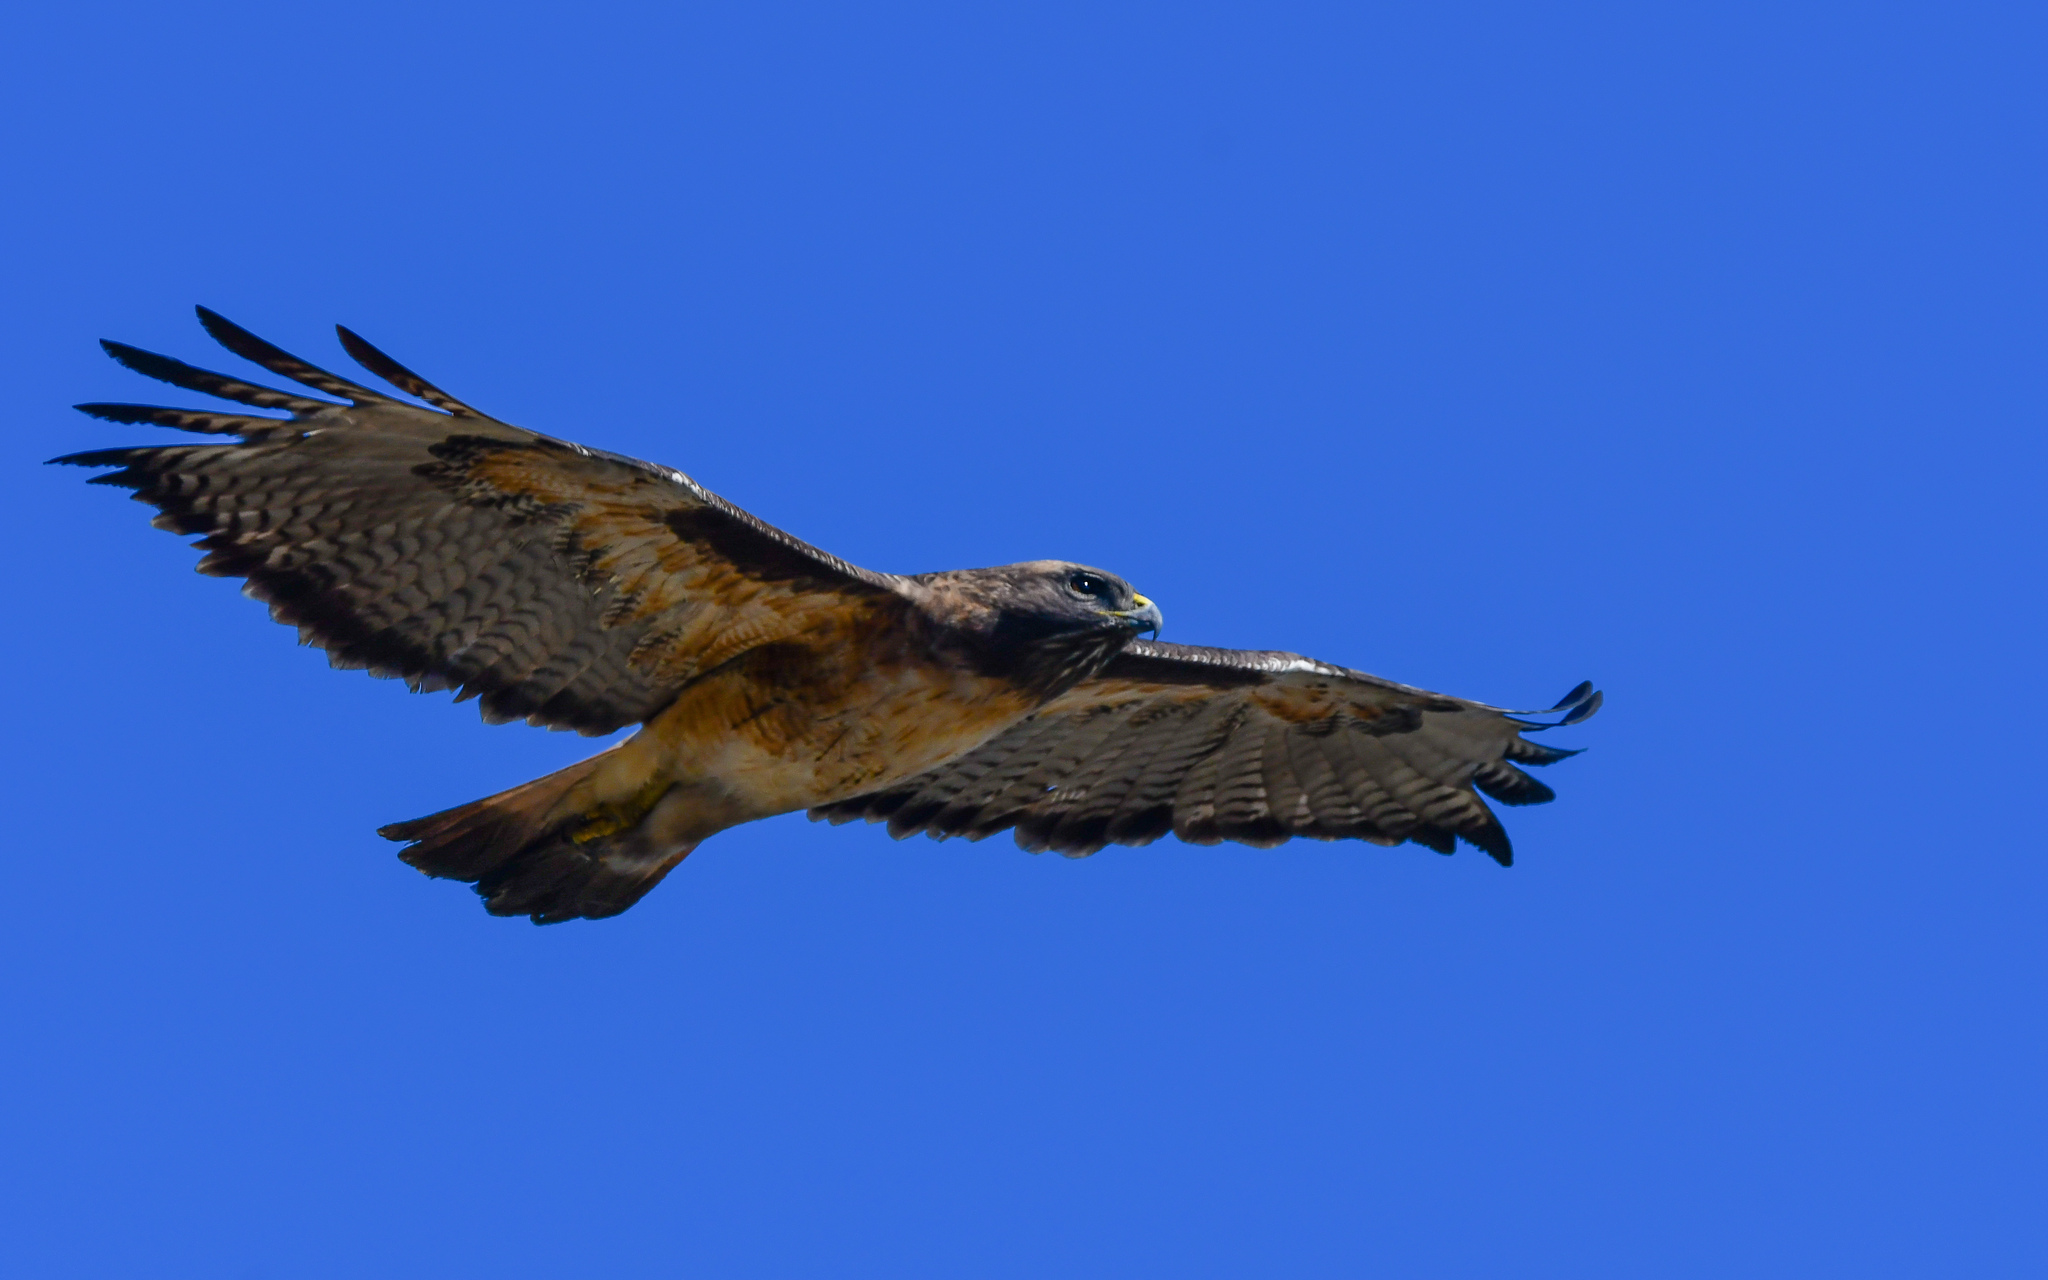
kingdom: Animalia
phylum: Chordata
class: Aves
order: Accipitriformes
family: Accipitridae
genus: Buteo
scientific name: Buteo jamaicensis
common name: Red-tailed hawk
